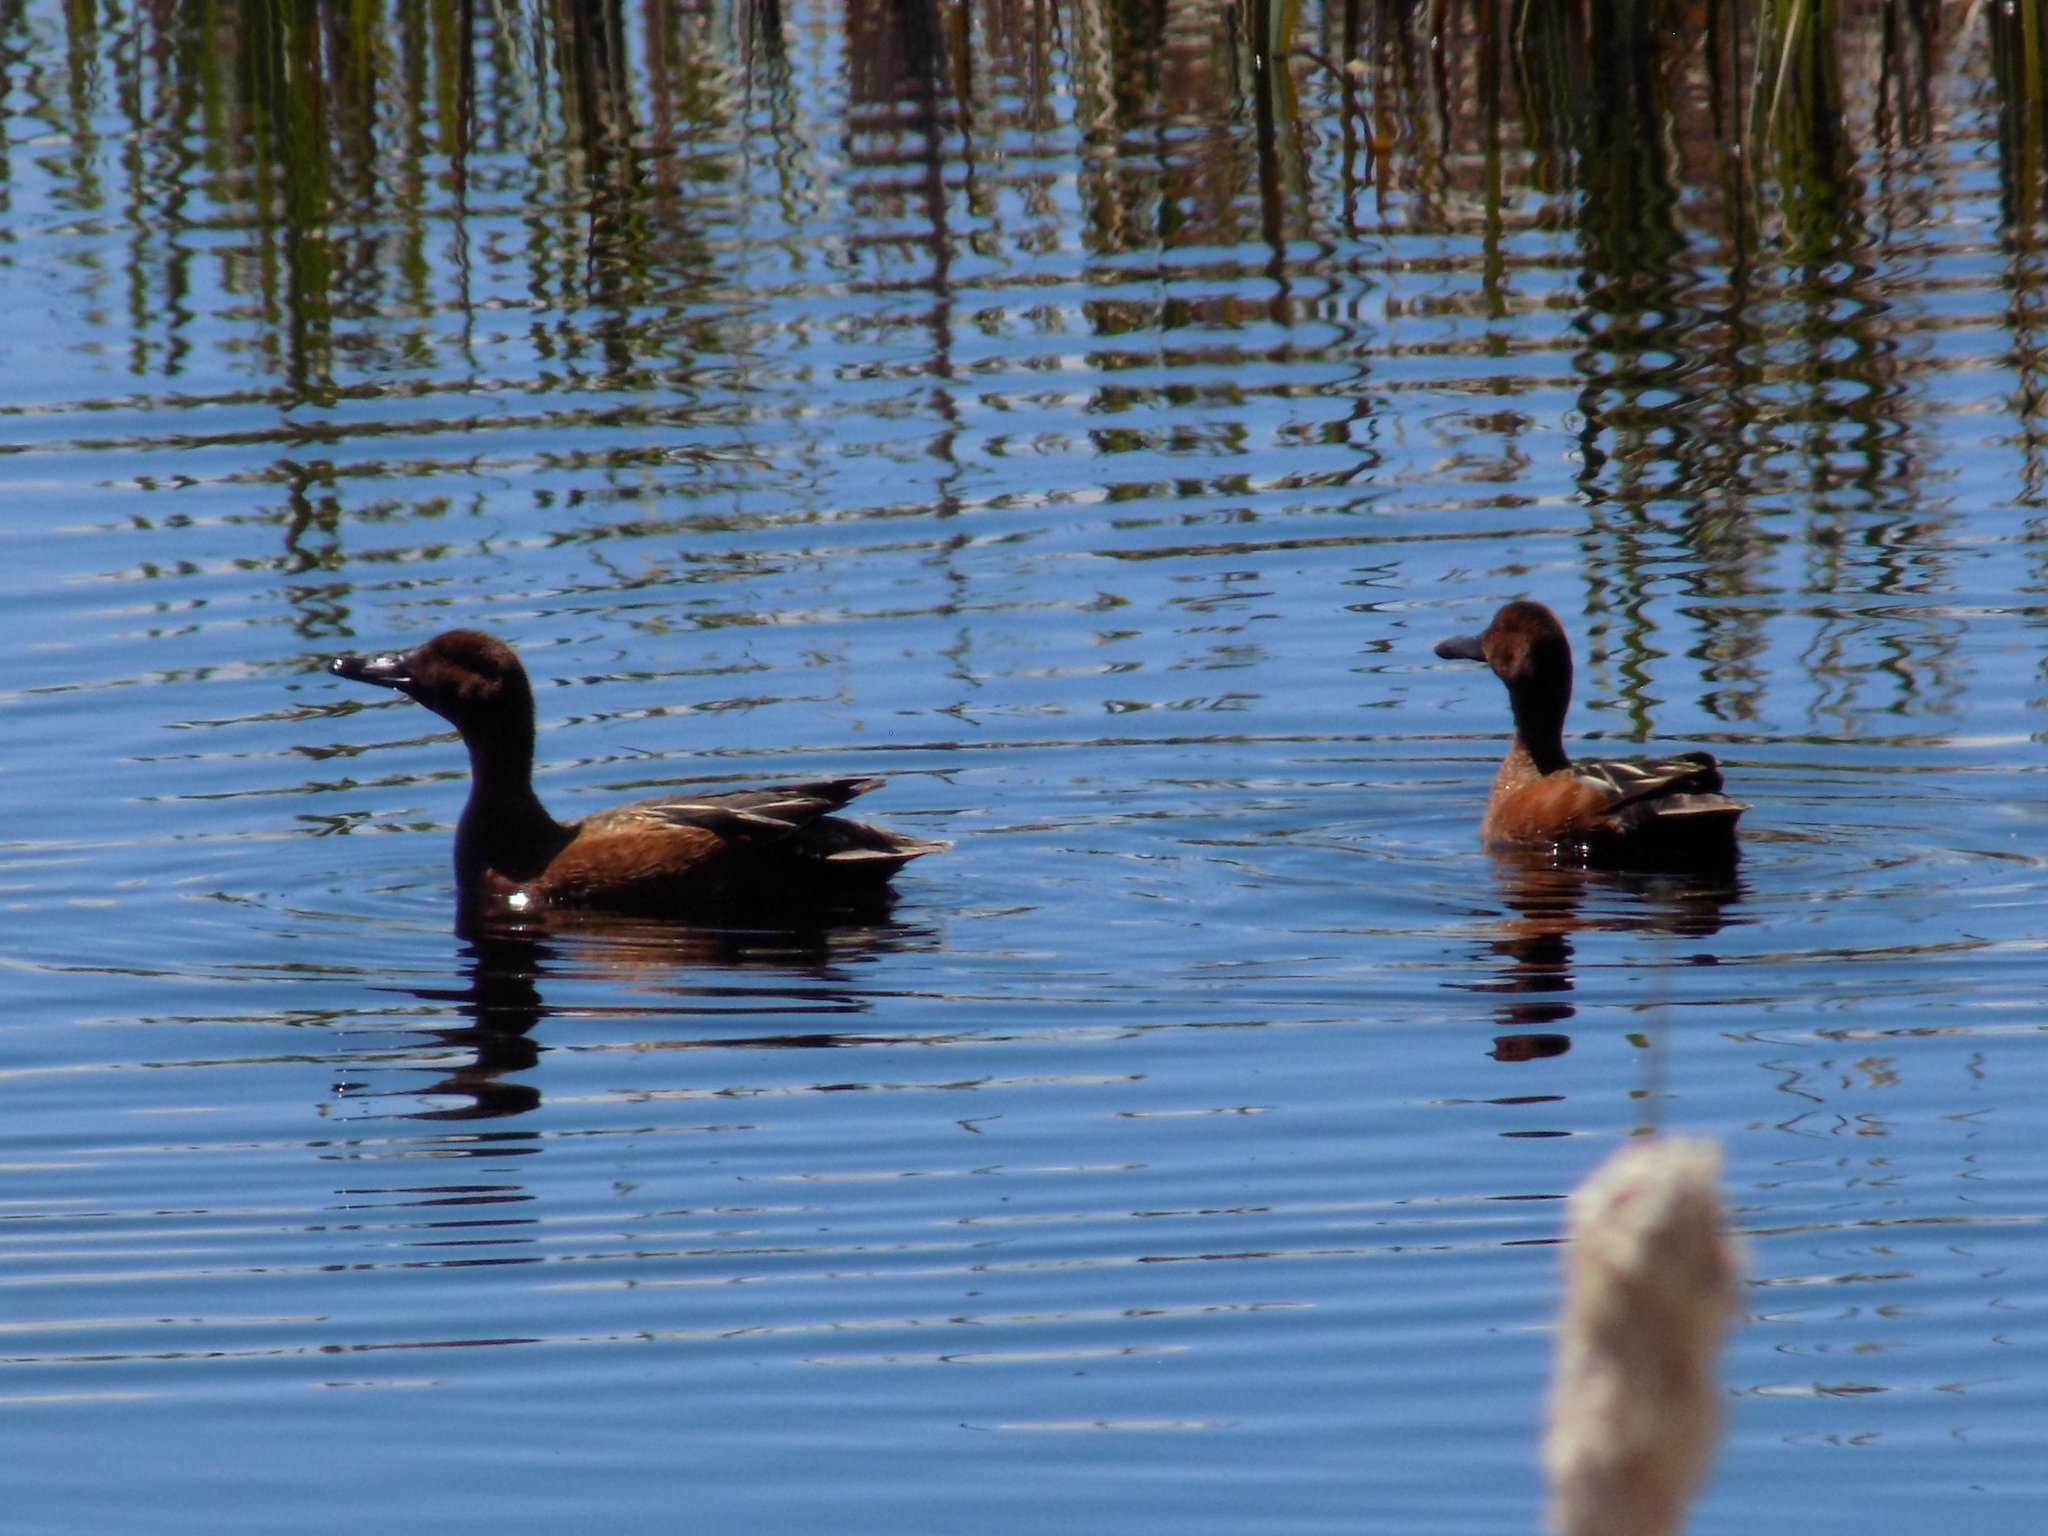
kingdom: Animalia
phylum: Chordata
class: Aves
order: Anseriformes
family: Anatidae
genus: Spatula
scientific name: Spatula cyanoptera
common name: Cinnamon teal
